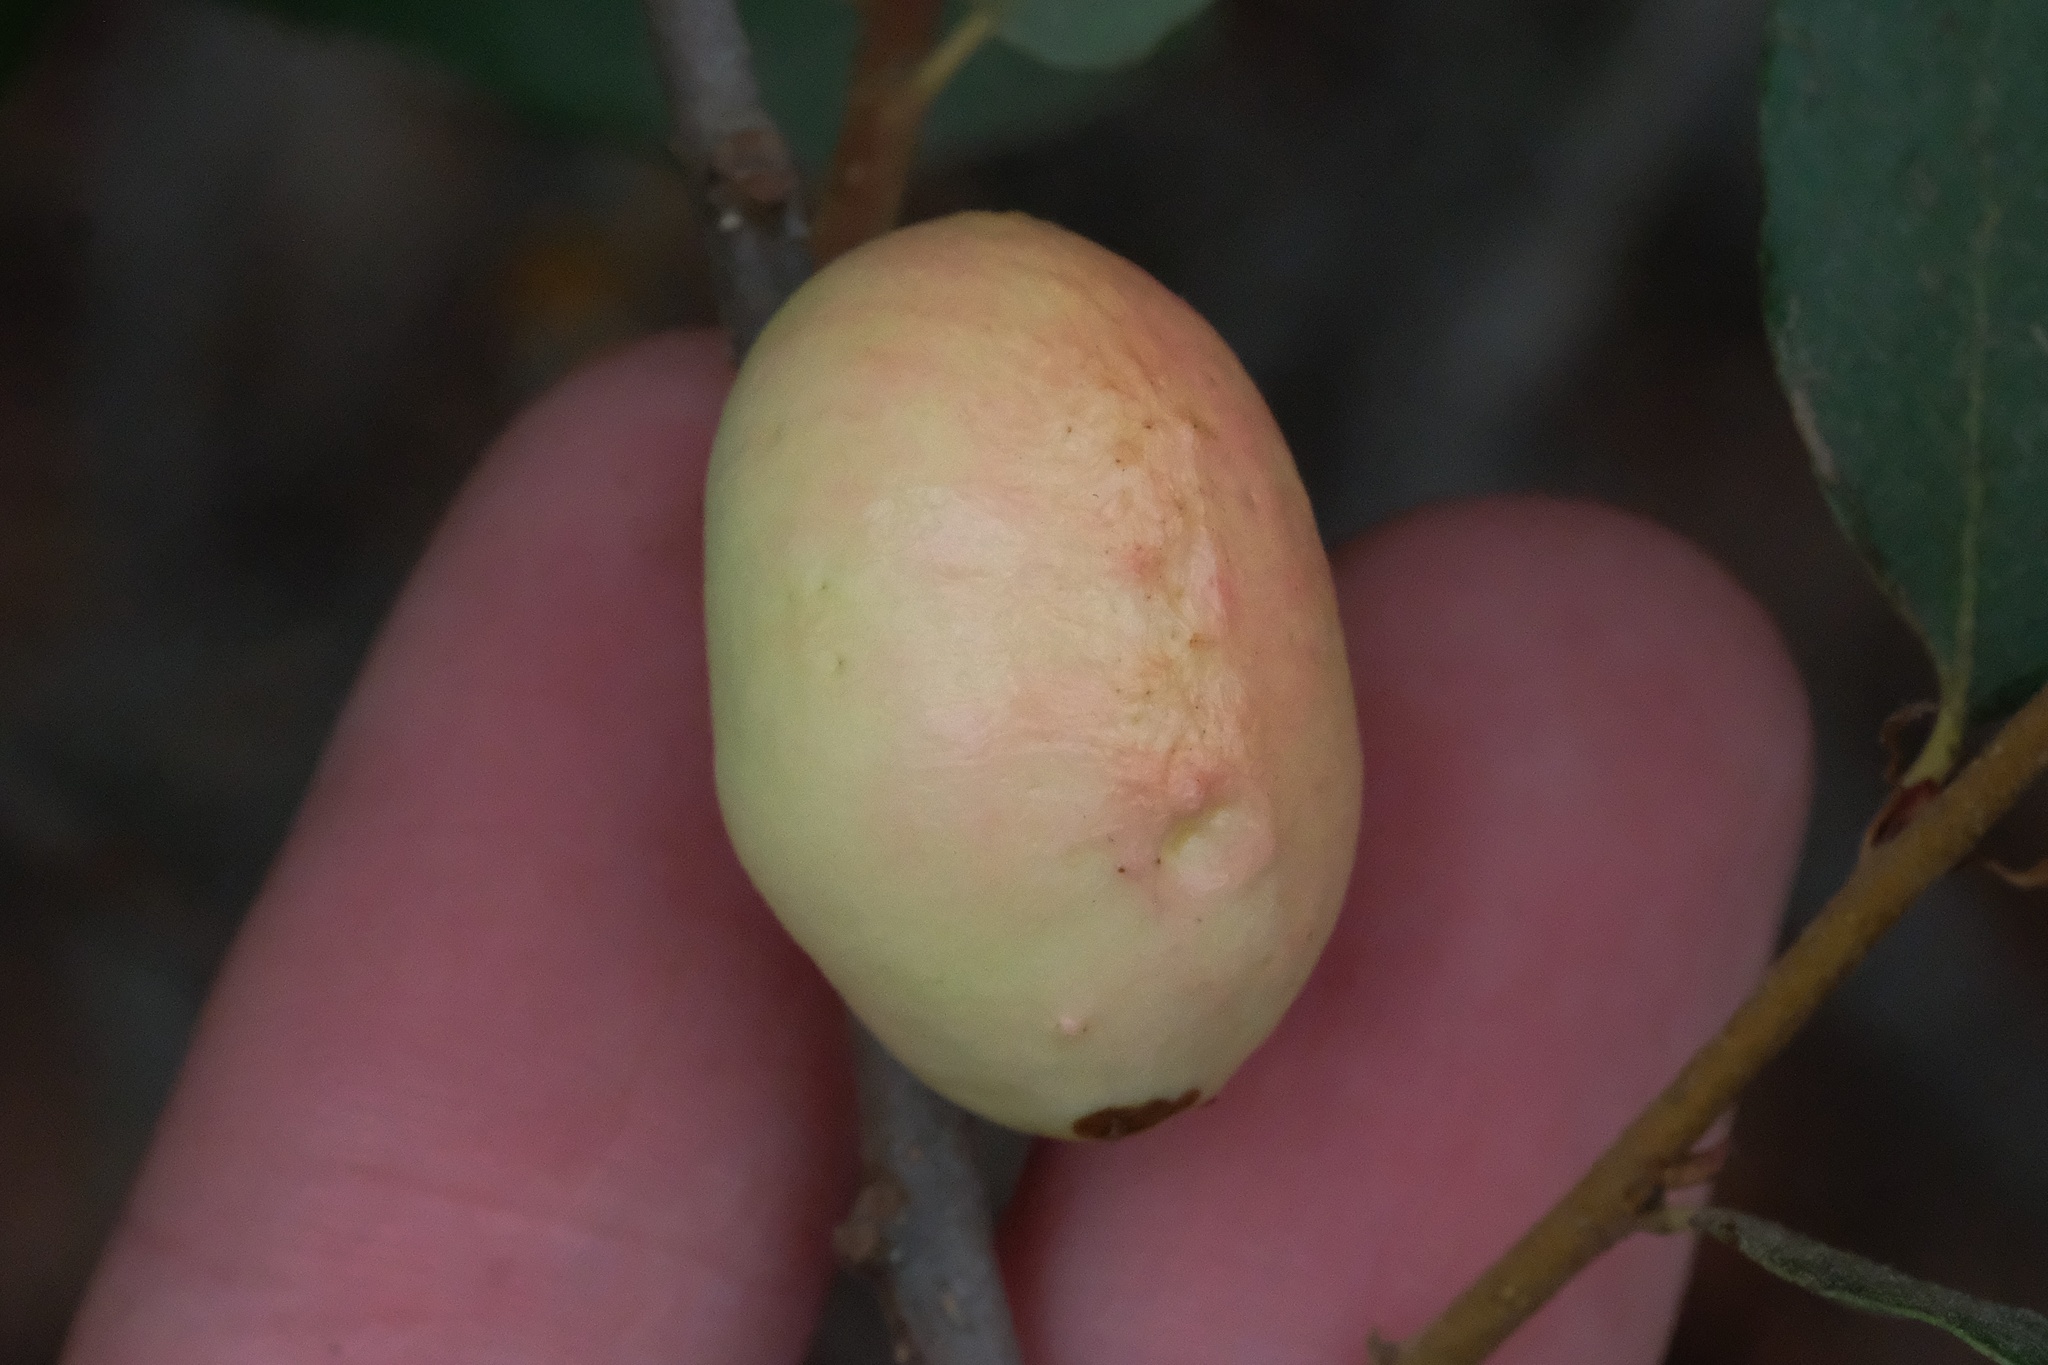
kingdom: Animalia
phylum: Arthropoda
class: Insecta
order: Hymenoptera
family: Cynipidae
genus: Andricus
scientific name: Andricus quercuscalifornicus
